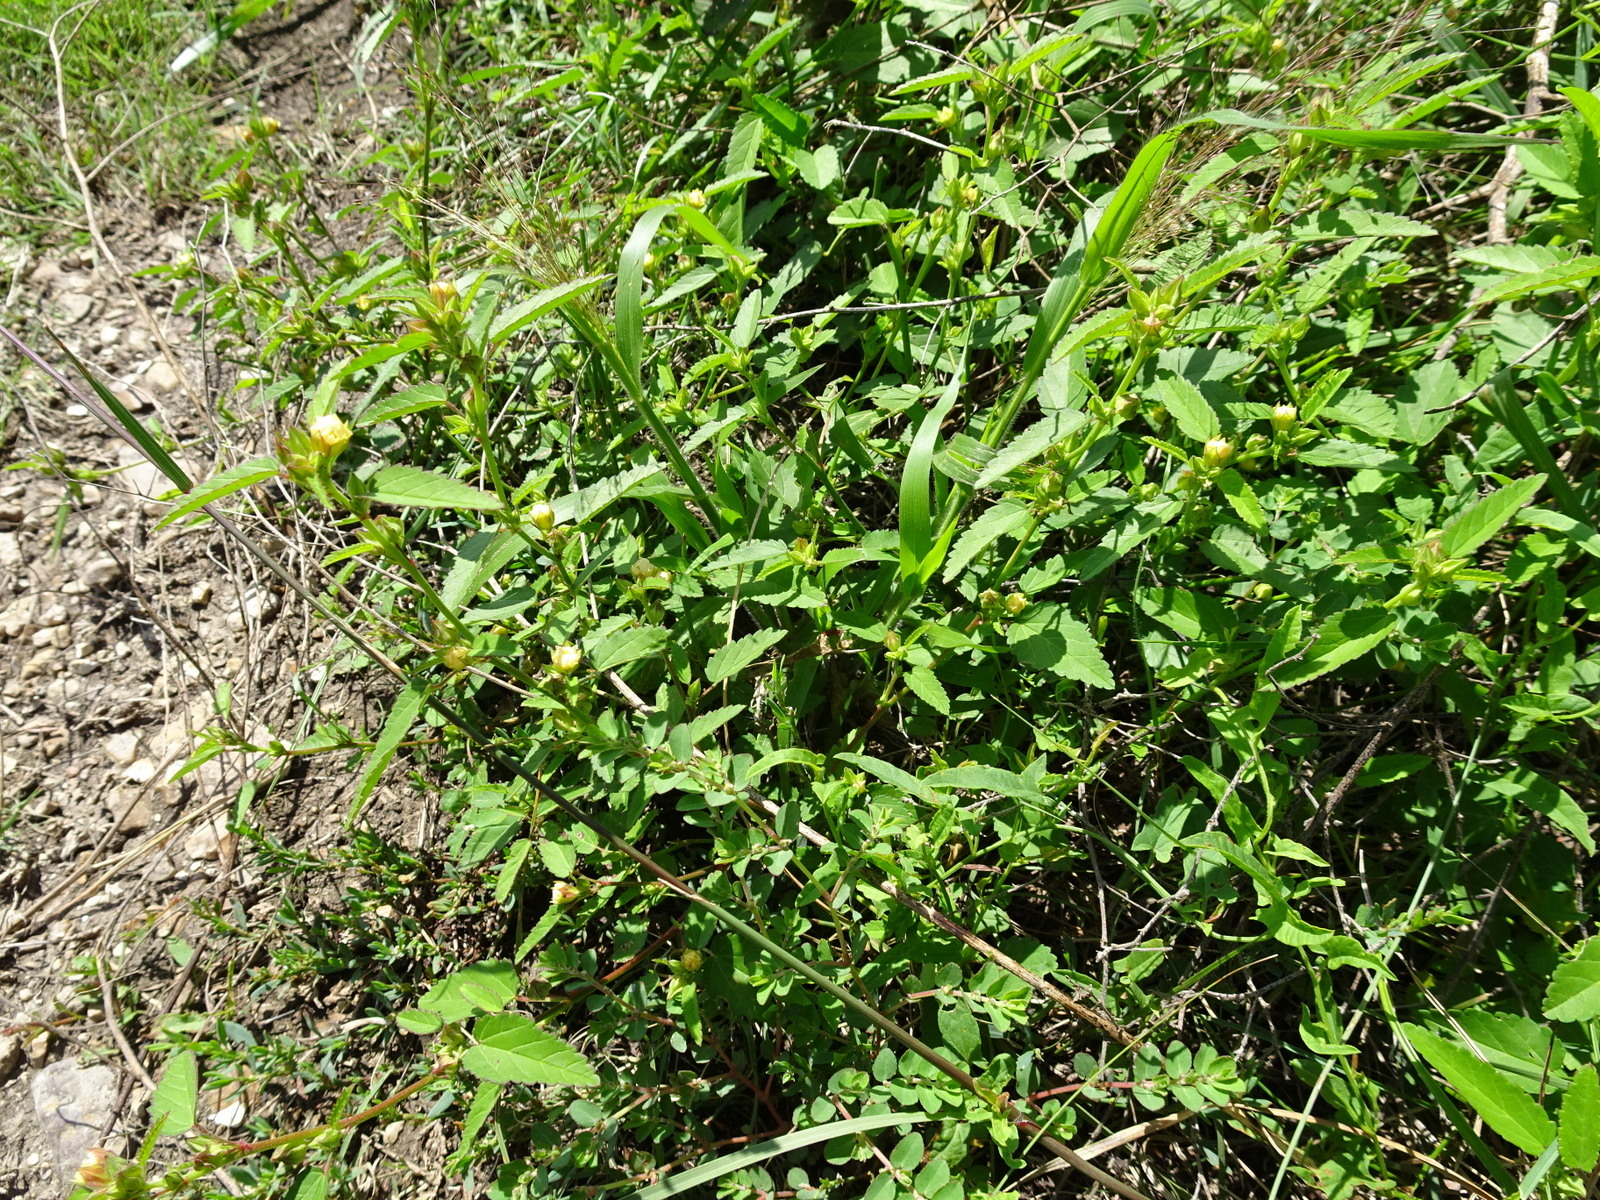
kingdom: Plantae
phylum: Tracheophyta
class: Magnoliopsida
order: Malvales
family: Malvaceae
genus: Sida
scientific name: Sida spinosa
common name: Prickly fanpetals
